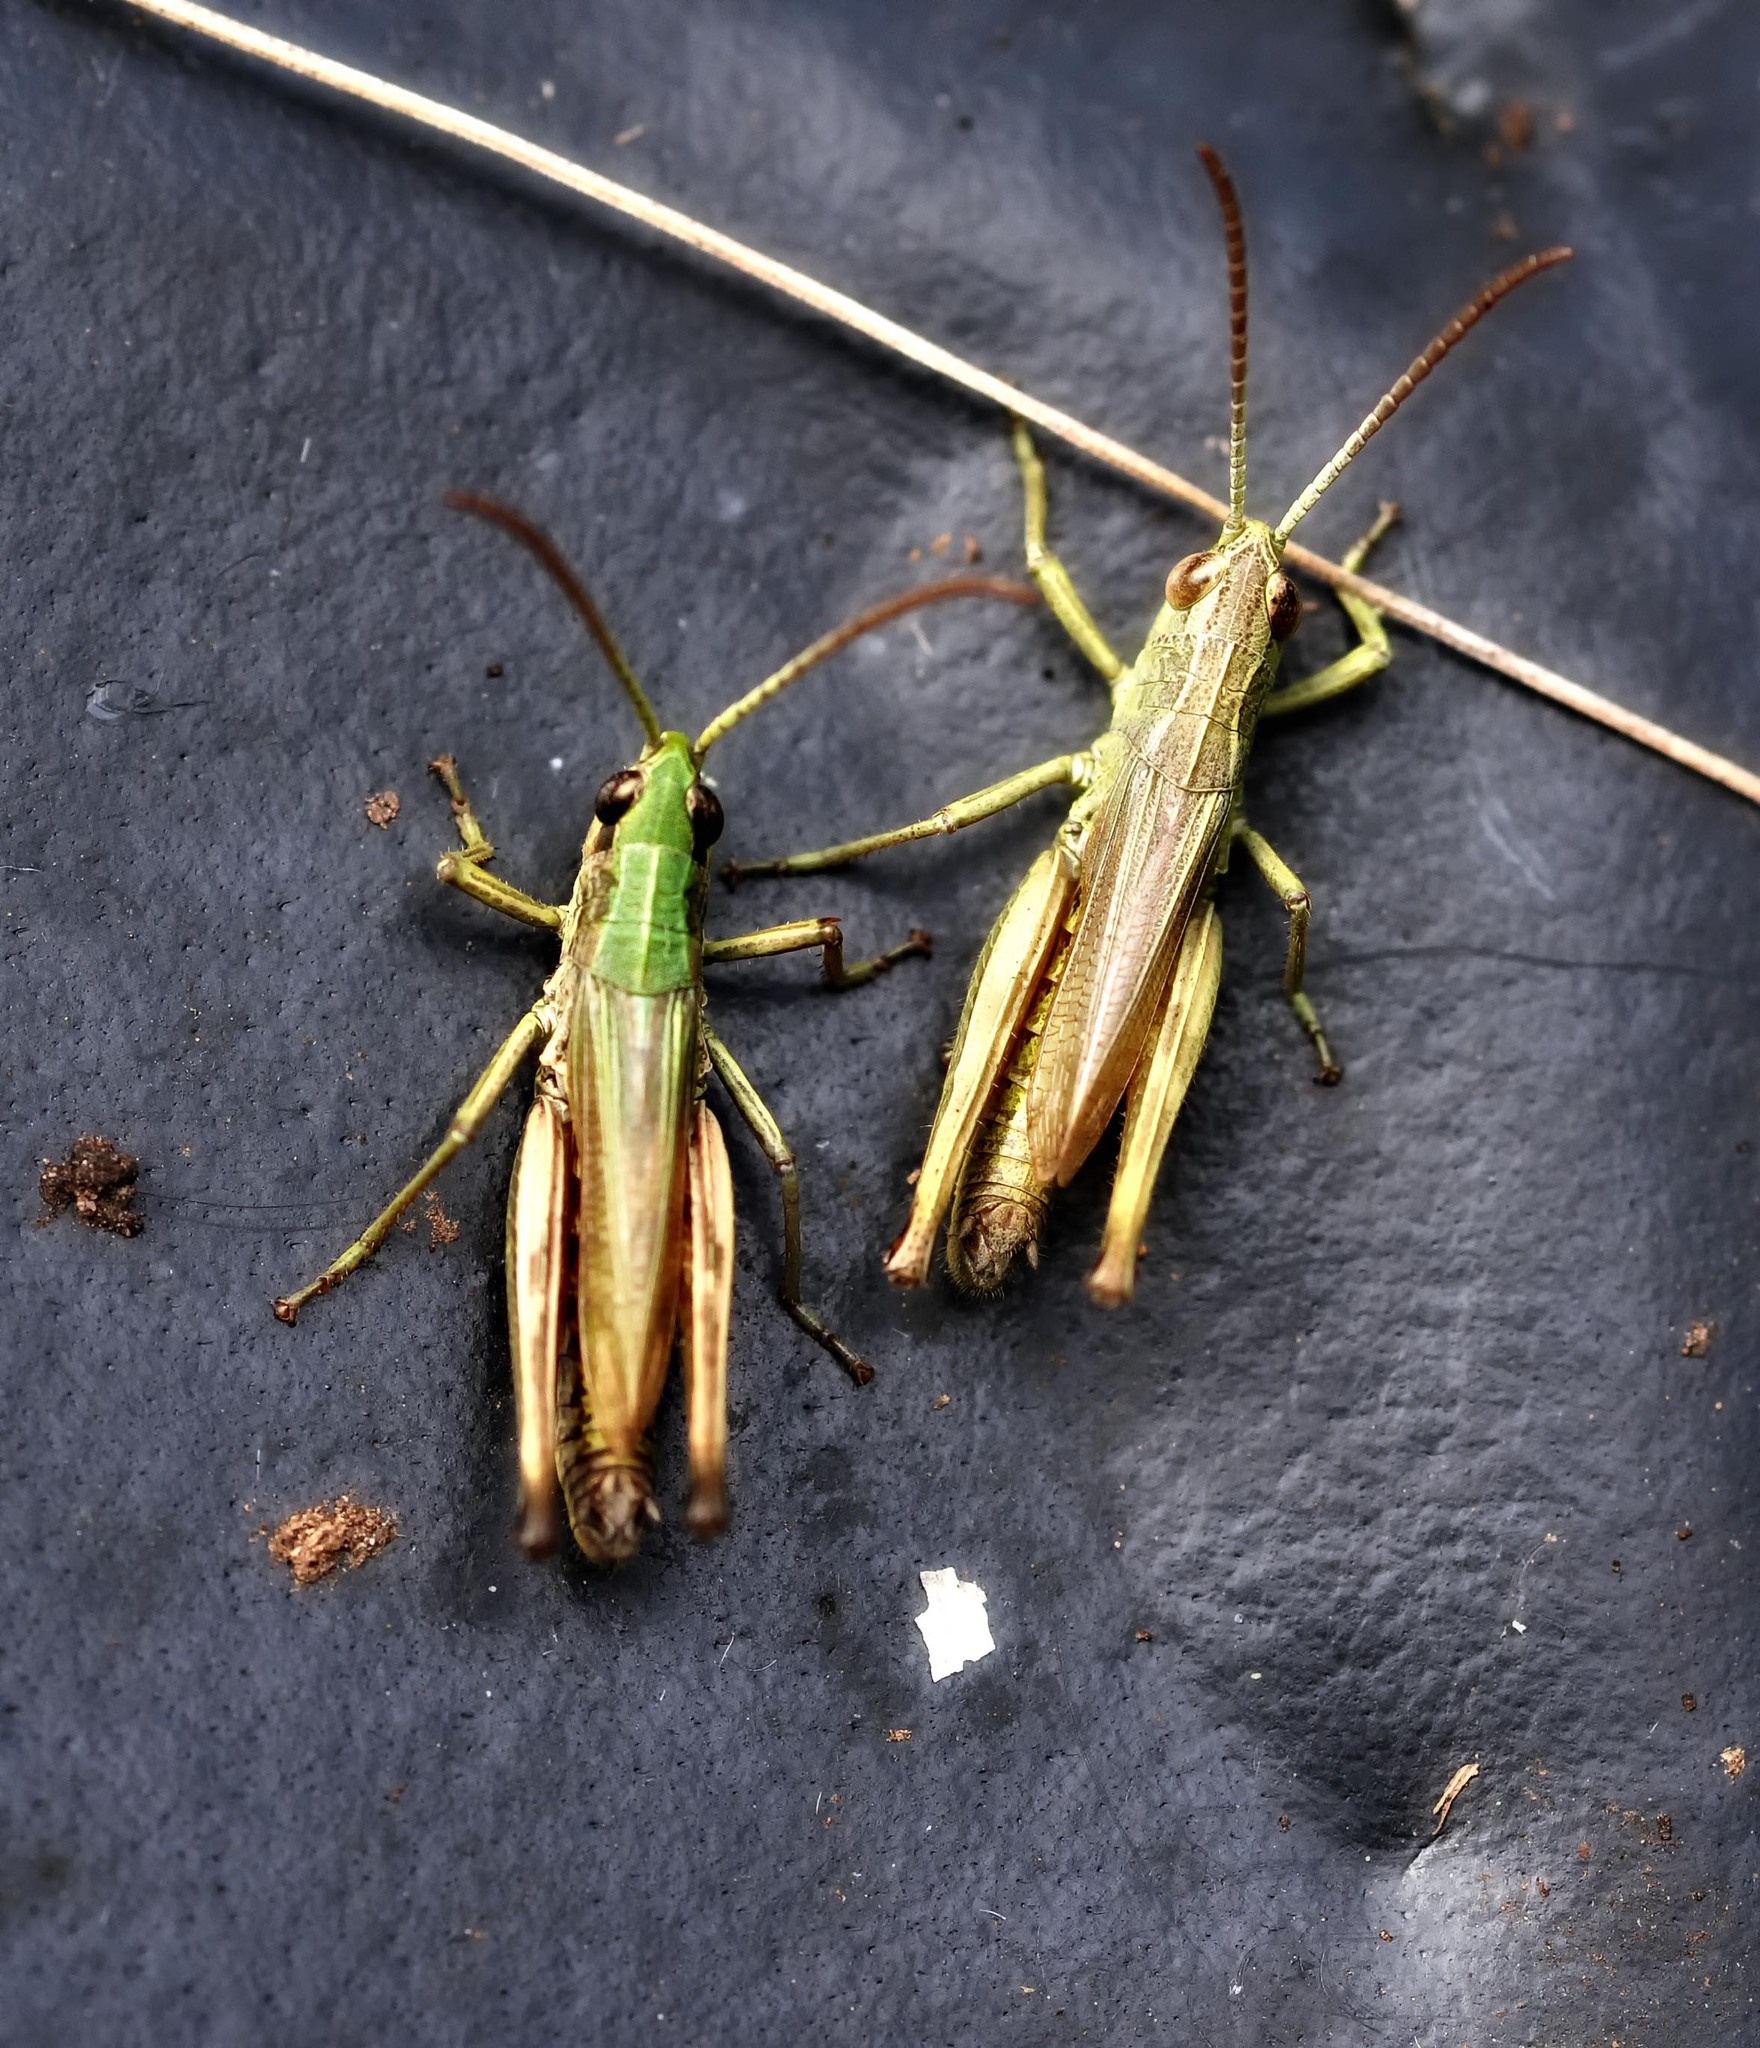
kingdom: Animalia
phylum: Arthropoda
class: Insecta
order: Orthoptera
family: Acrididae
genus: Pseudochorthippus
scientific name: Pseudochorthippus parallelus
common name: Meadow grasshopper
